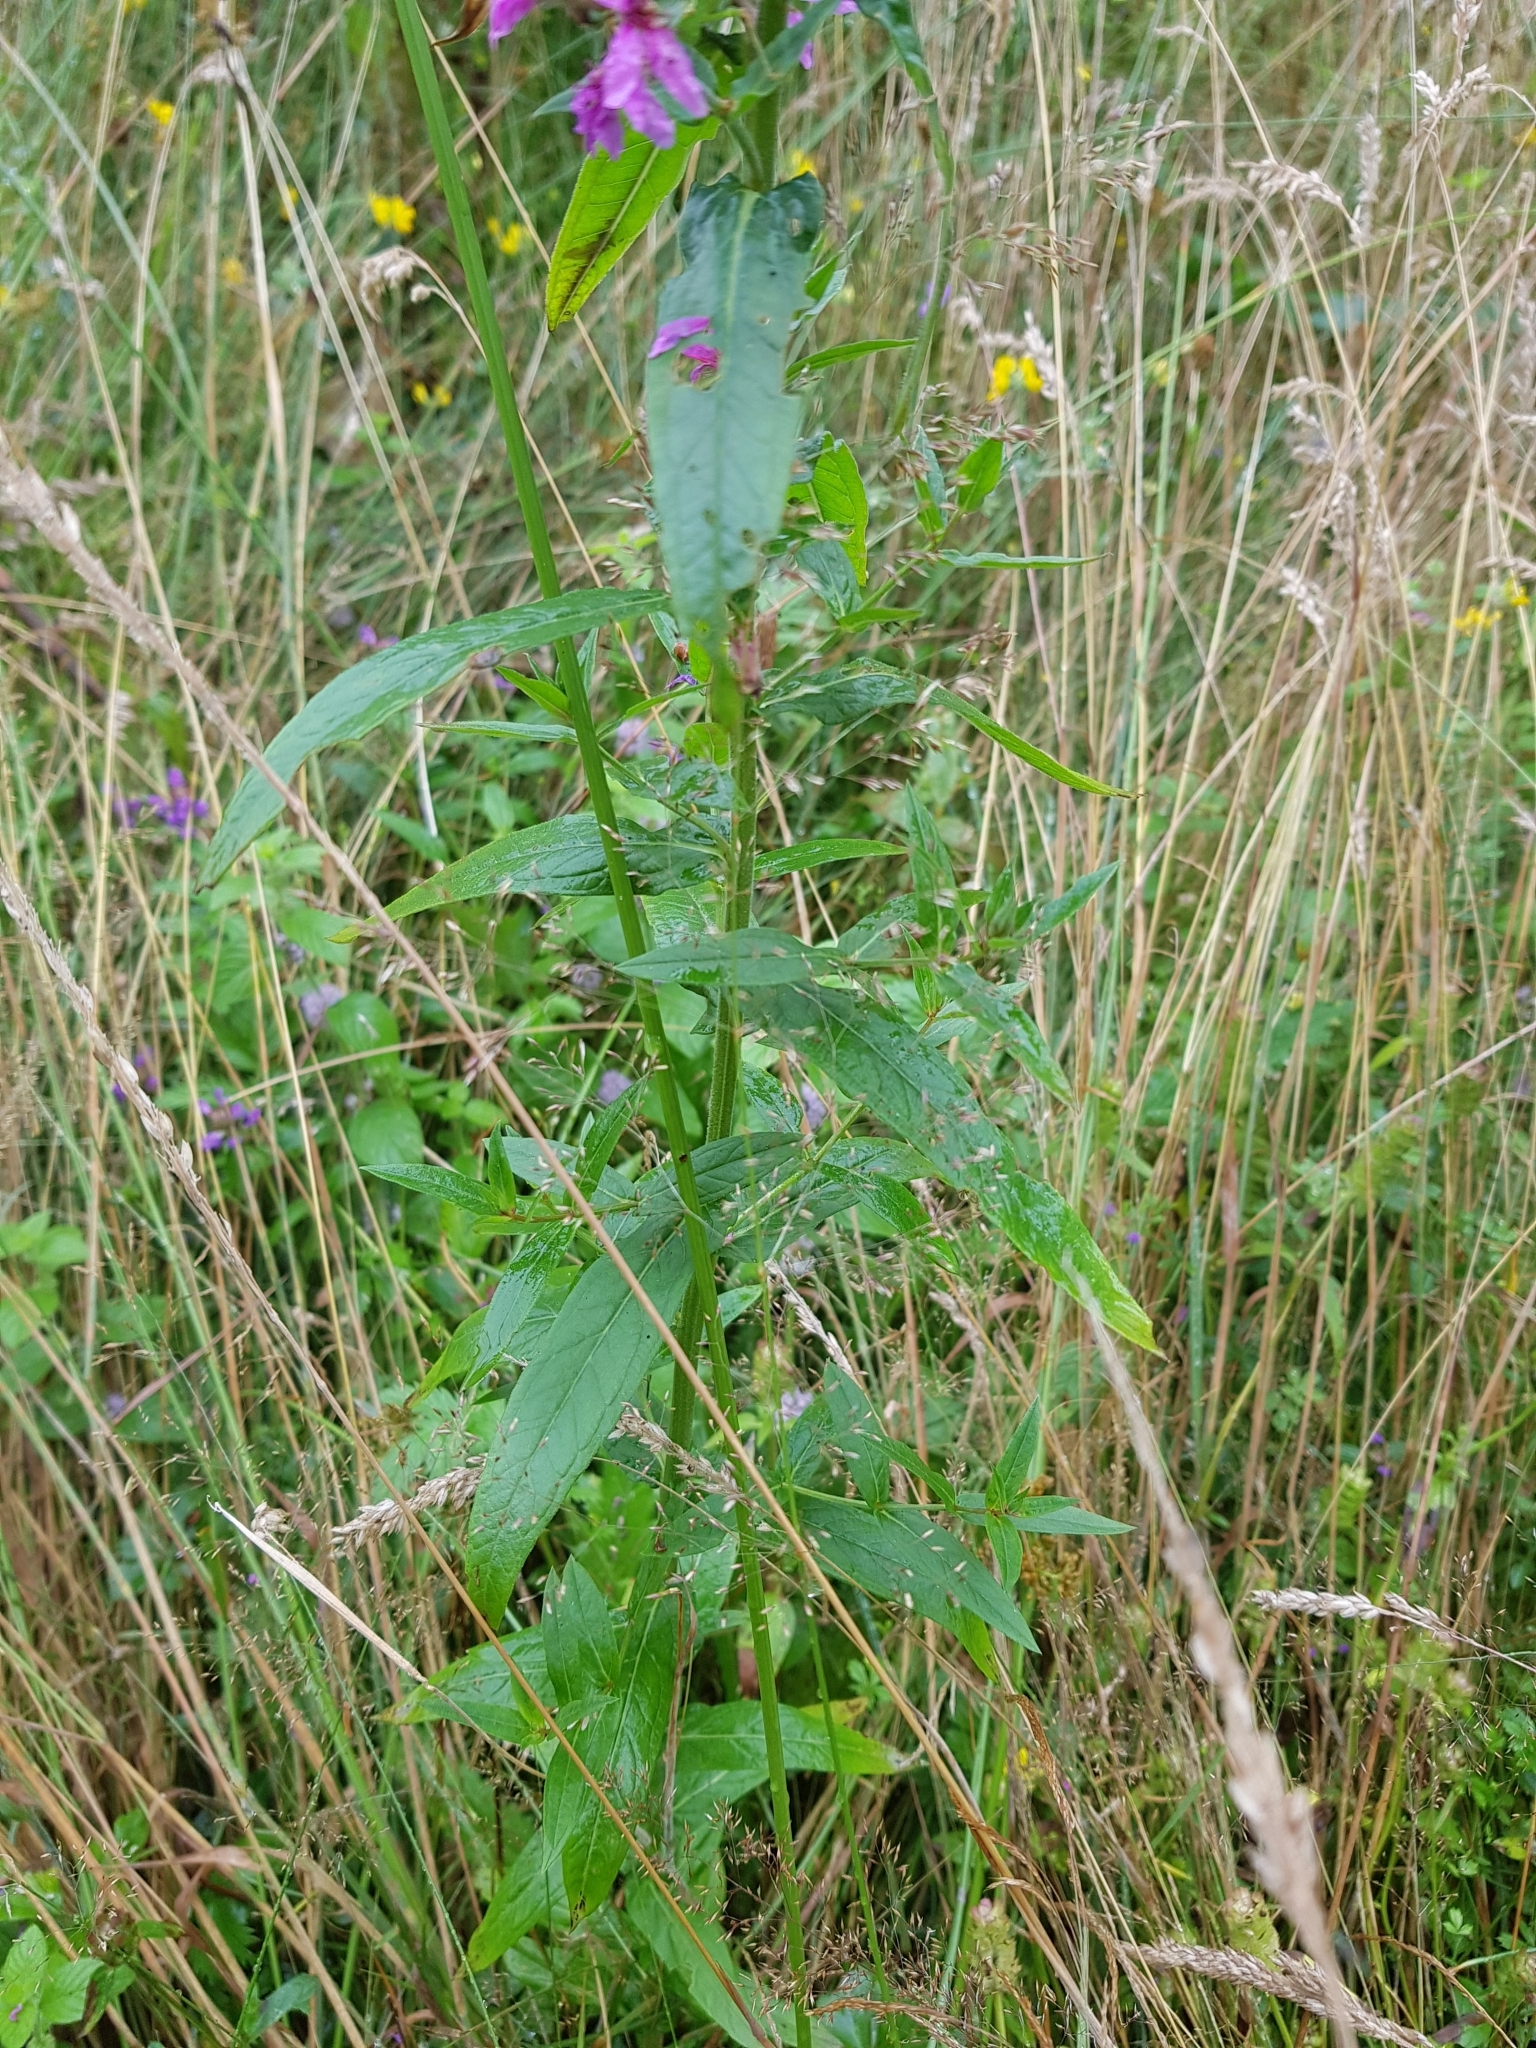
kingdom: Plantae
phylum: Tracheophyta
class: Magnoliopsida
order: Myrtales
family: Lythraceae
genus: Lythrum
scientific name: Lythrum salicaria
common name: Purple loosestrife
